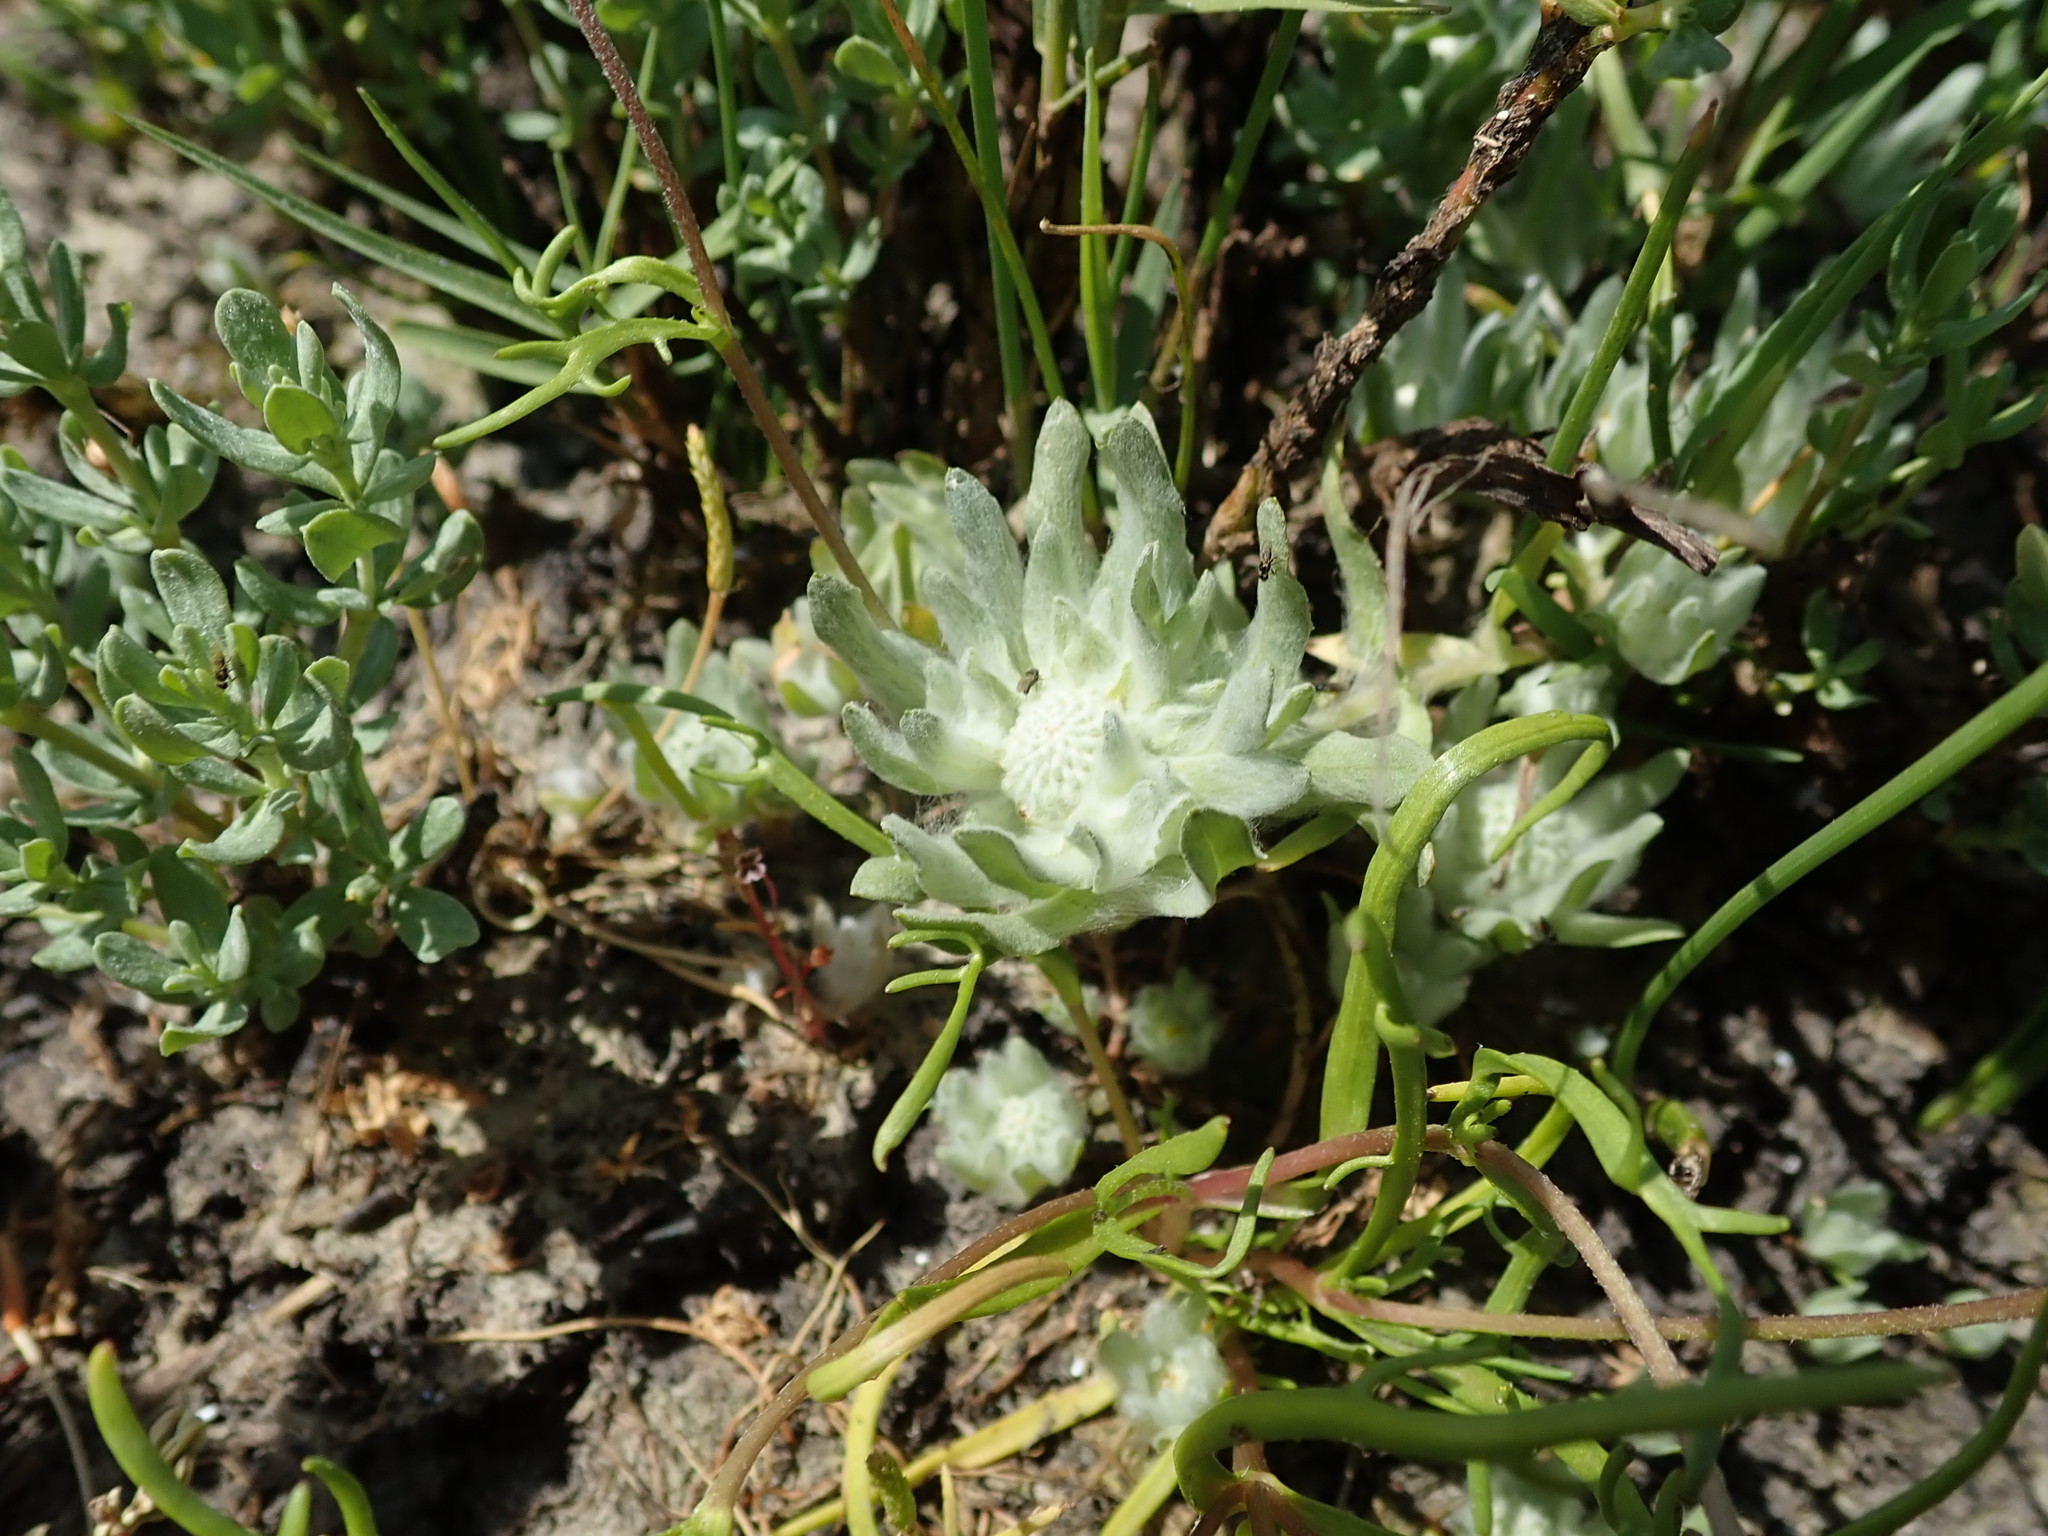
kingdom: Plantae
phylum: Tracheophyta
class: Magnoliopsida
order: Asterales
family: Asteraceae
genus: Psilocarphus
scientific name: Psilocarphus brevissimus
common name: Dwarf woollyheads
